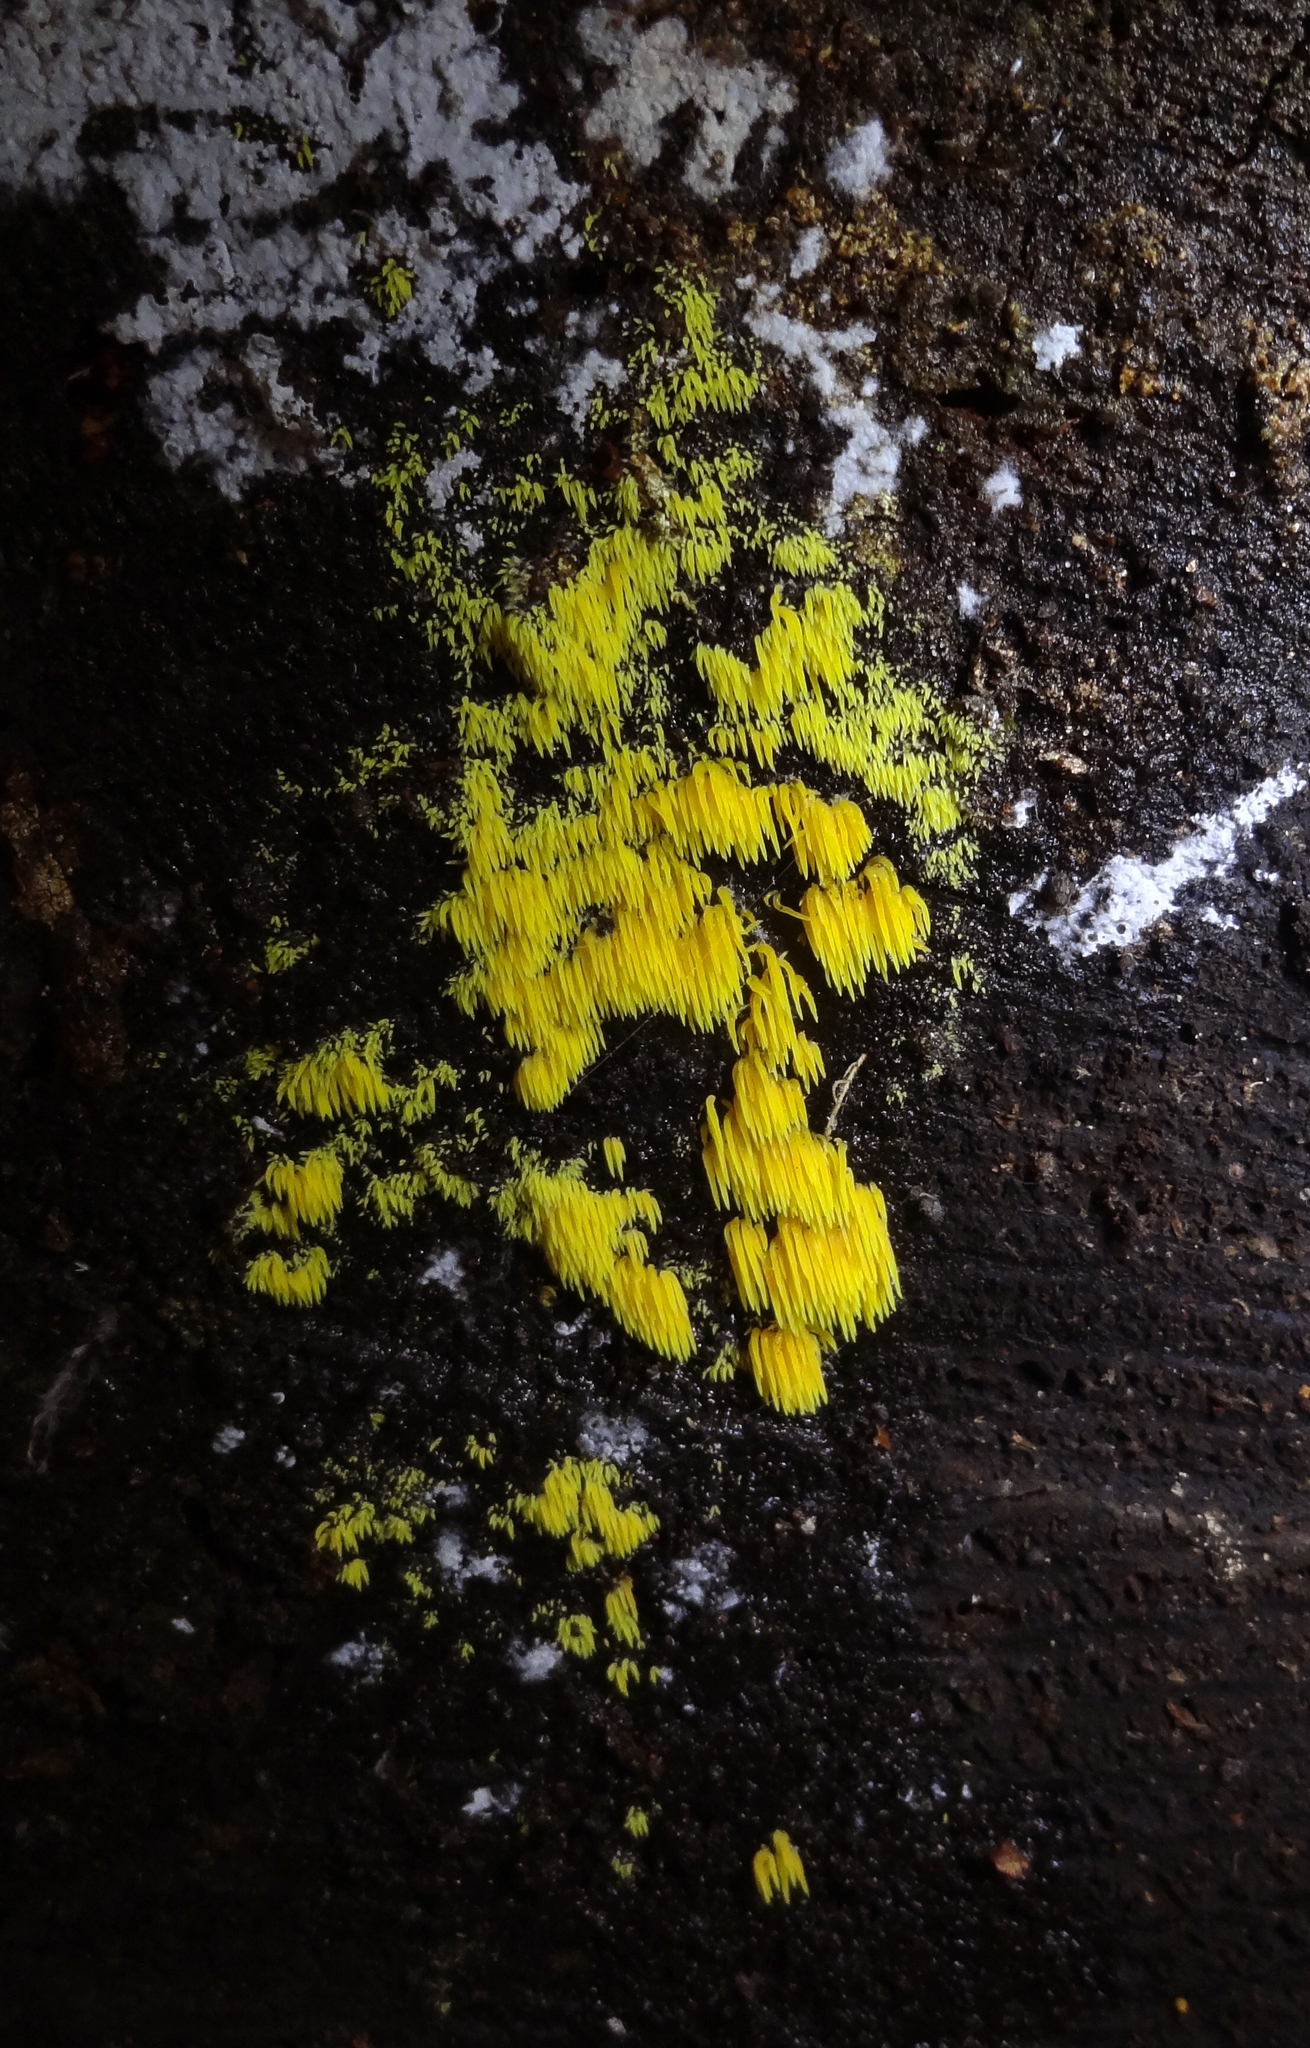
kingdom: Fungi
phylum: Basidiomycota
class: Agaricomycetes
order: Agaricales
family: Clavariaceae
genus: Mucronella
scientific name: Mucronella flava
